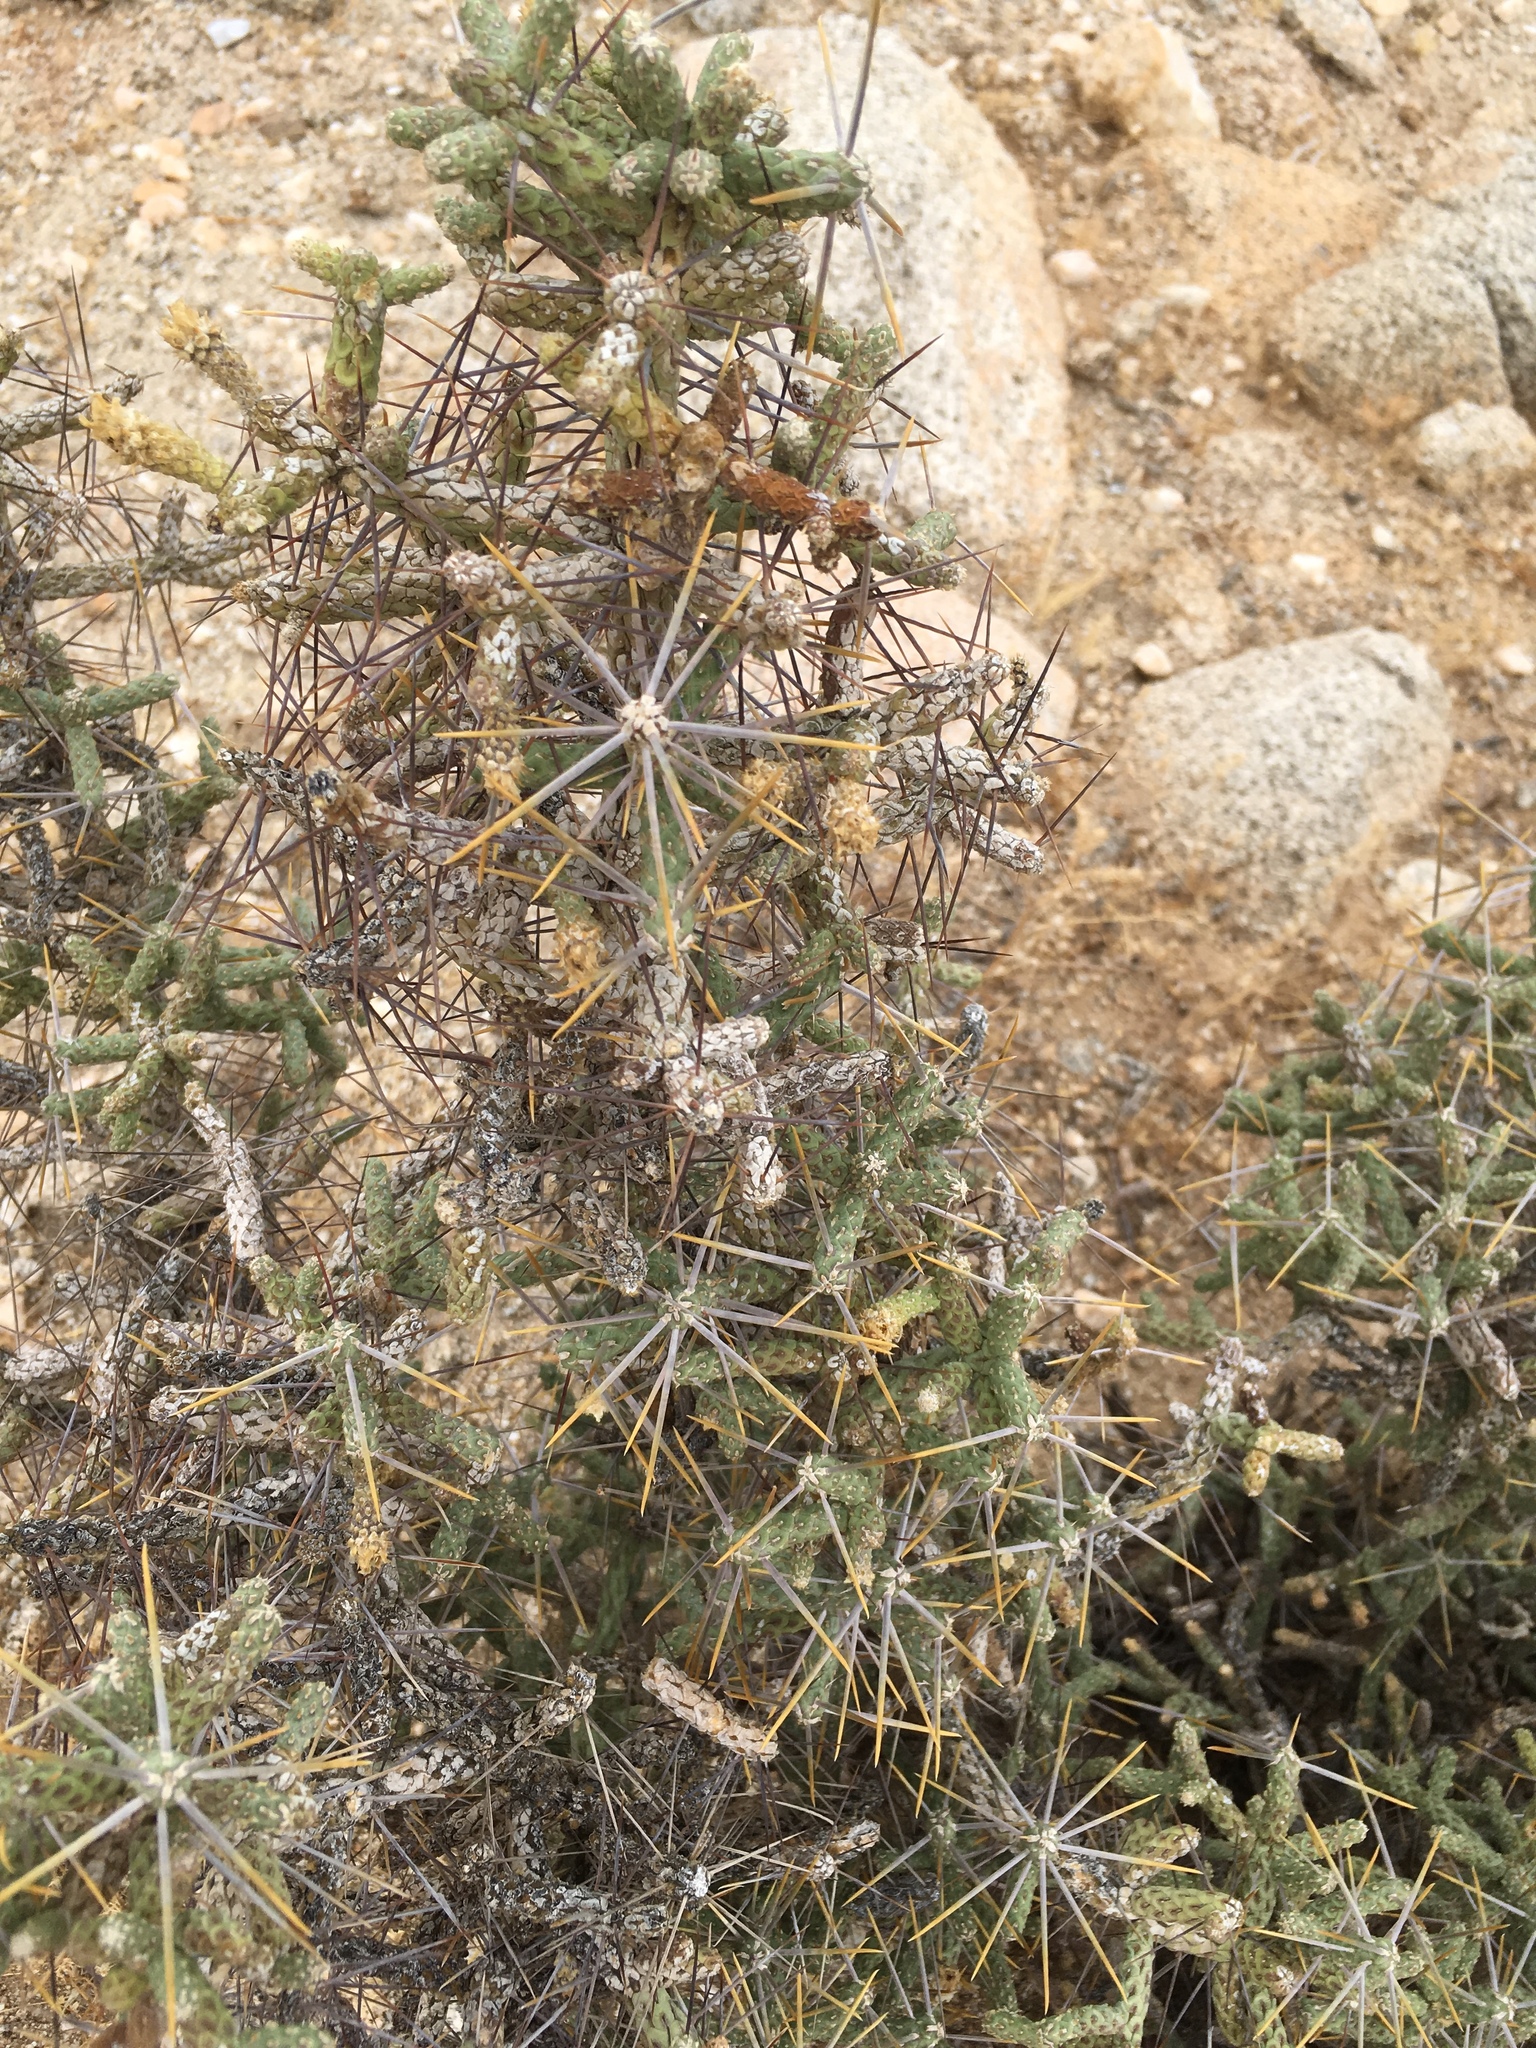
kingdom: Plantae
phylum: Tracheophyta
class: Magnoliopsida
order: Caryophyllales
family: Cactaceae
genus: Cylindropuntia
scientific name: Cylindropuntia ramosissima
